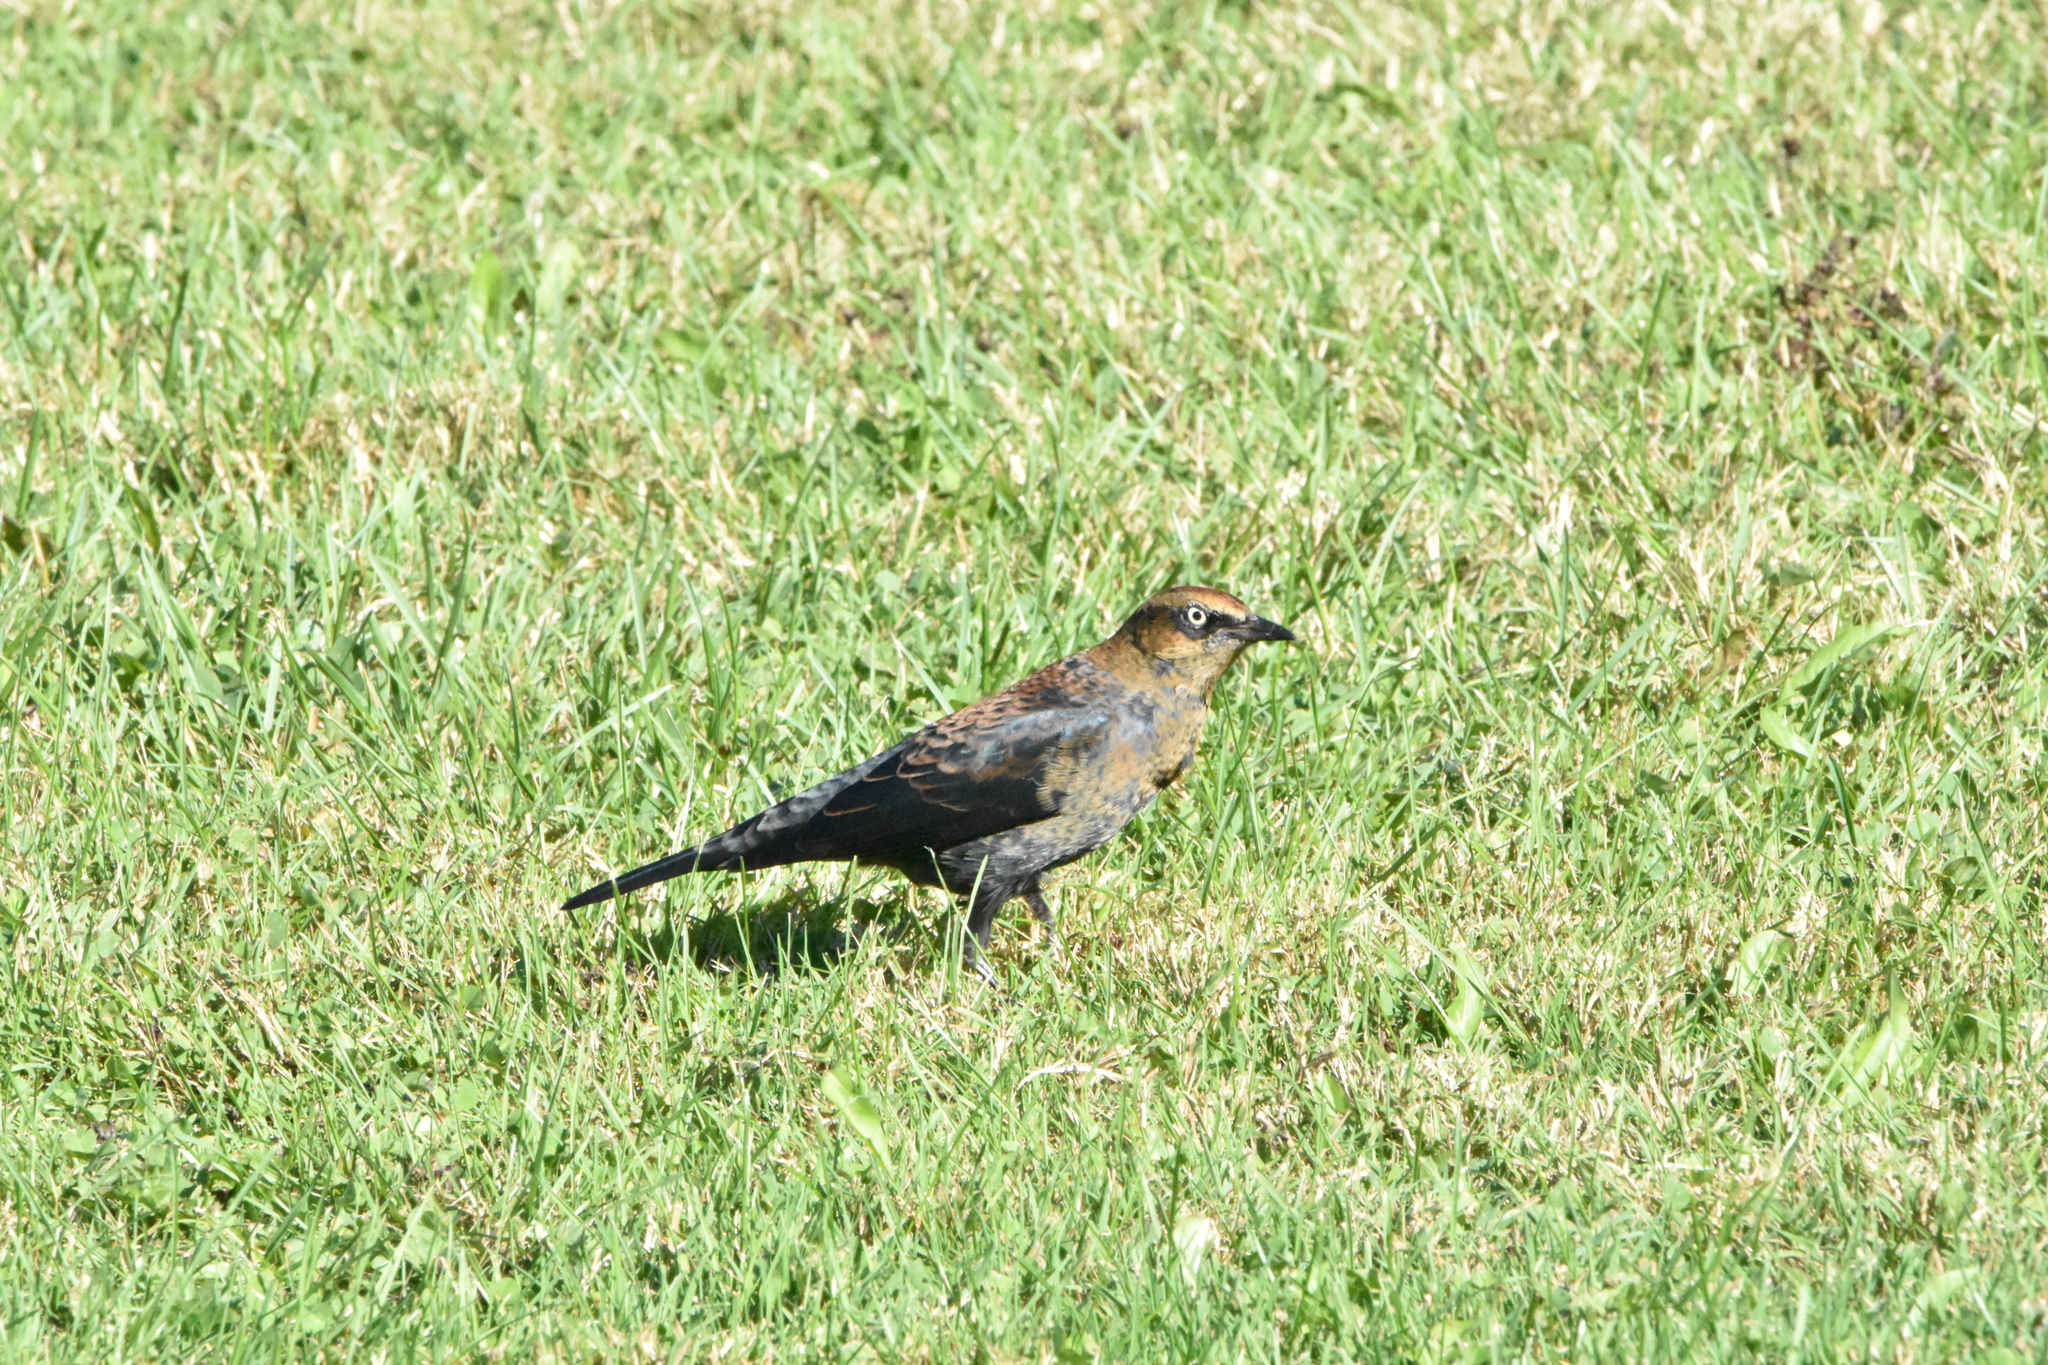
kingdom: Animalia
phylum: Chordata
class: Aves
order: Passeriformes
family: Icteridae
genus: Euphagus
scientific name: Euphagus carolinus
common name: Rusty blackbird
